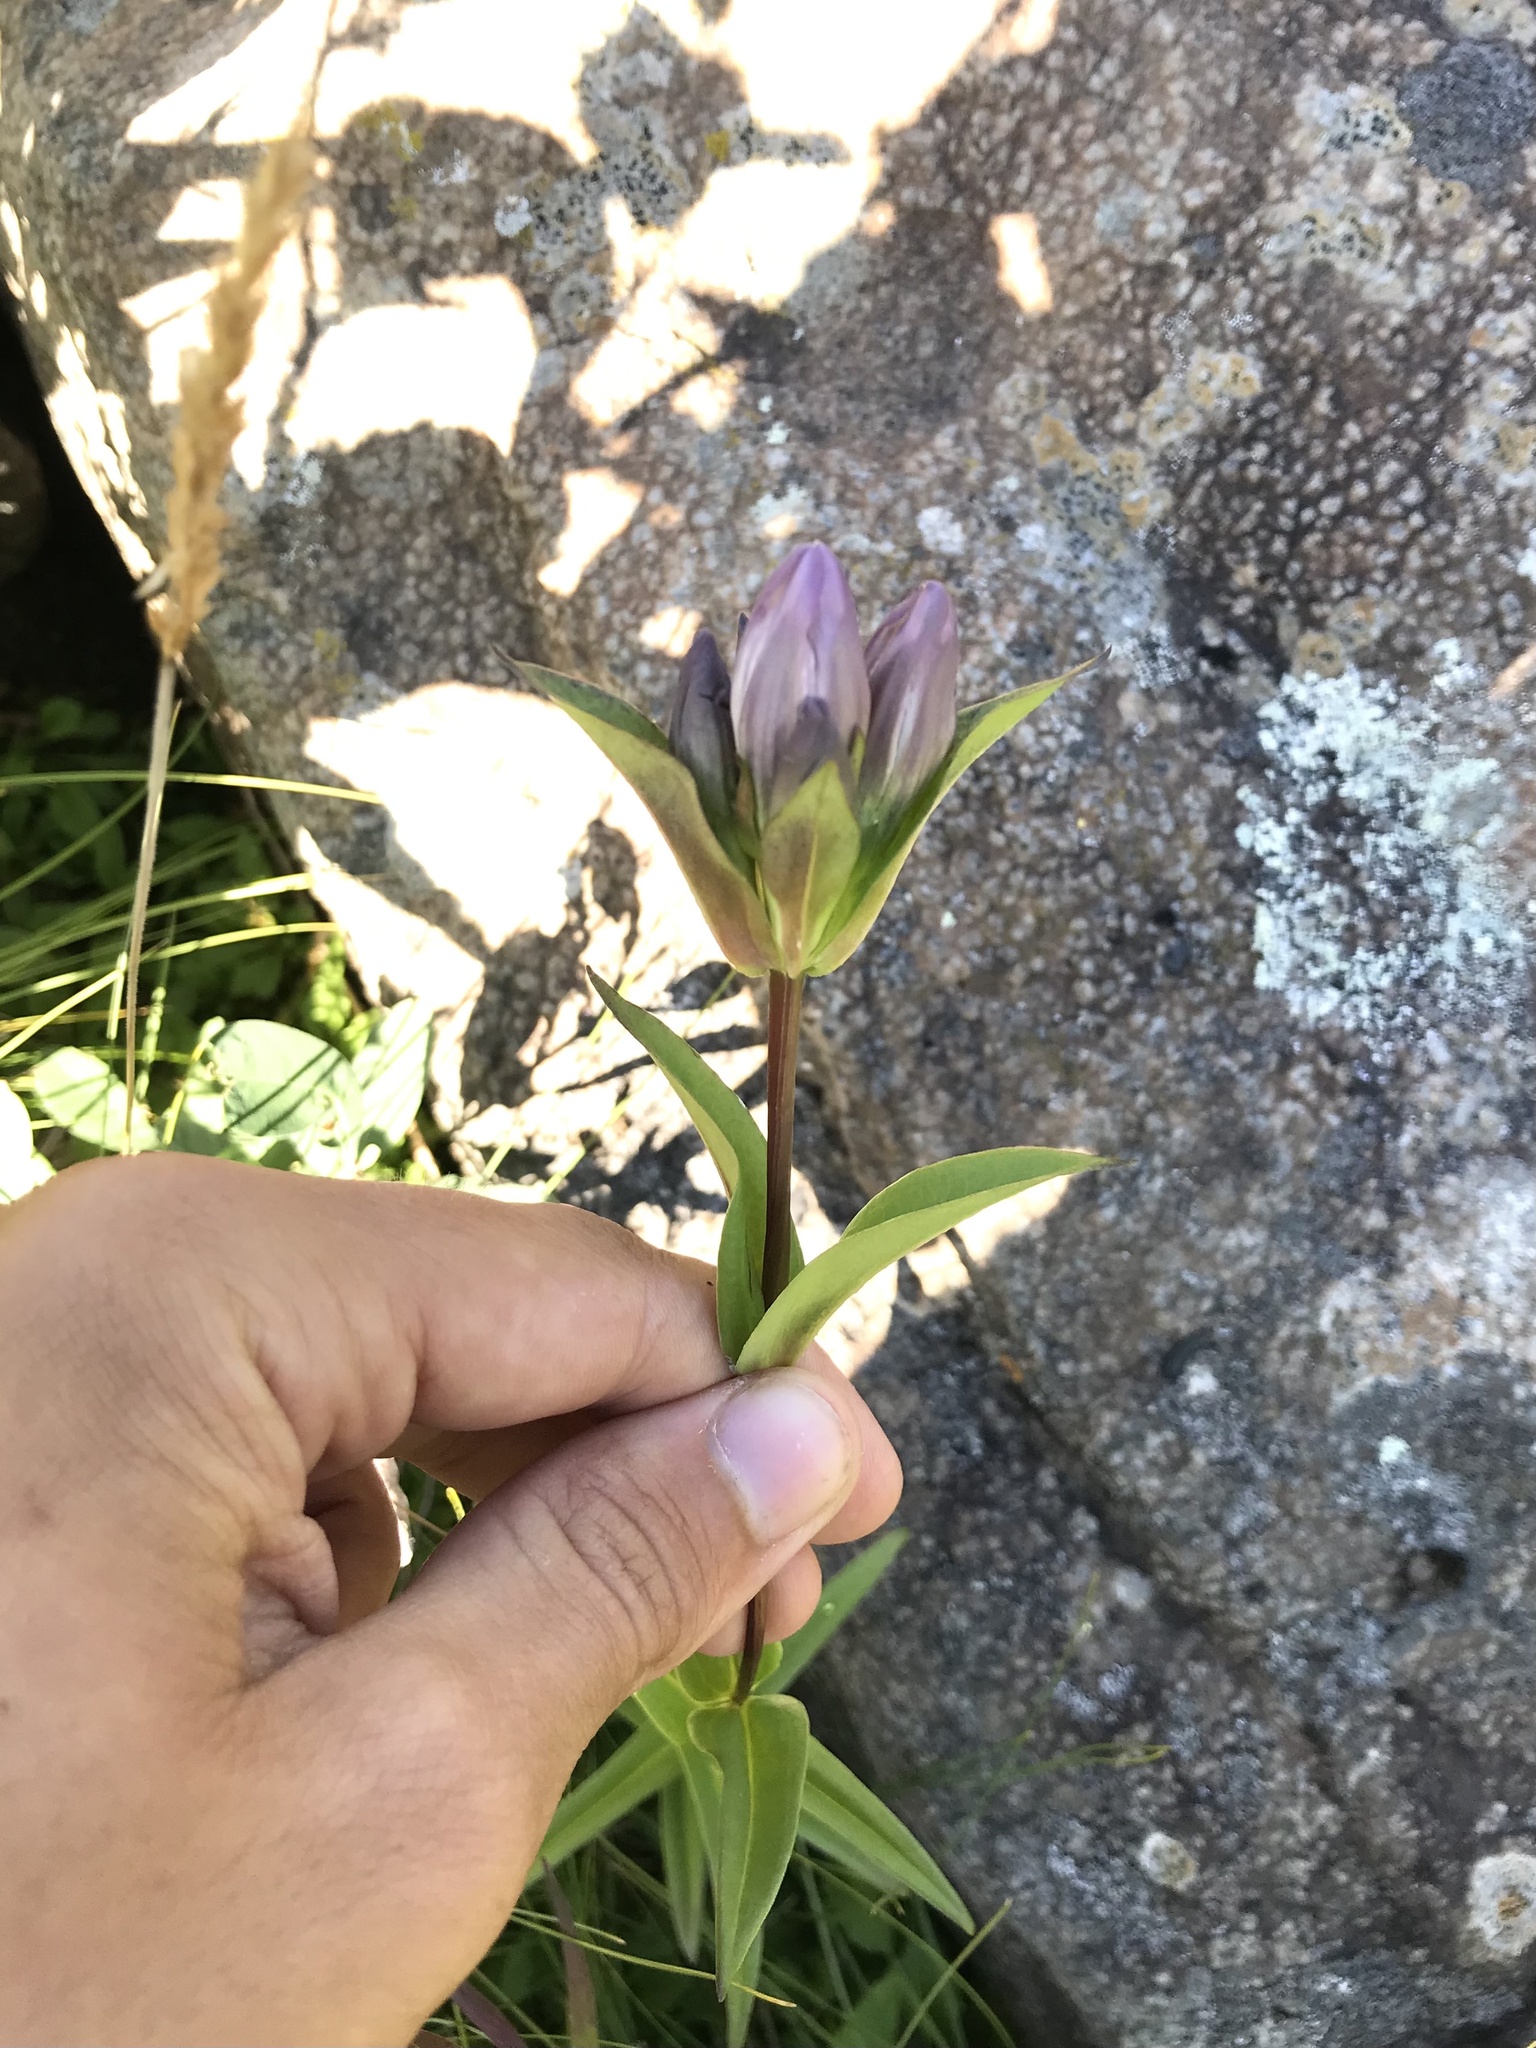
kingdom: Plantae
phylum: Tracheophyta
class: Magnoliopsida
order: Gentianales
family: Gentianaceae
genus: Gentiana
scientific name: Gentiana rubricaulis
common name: Purple-stemmed gentian
